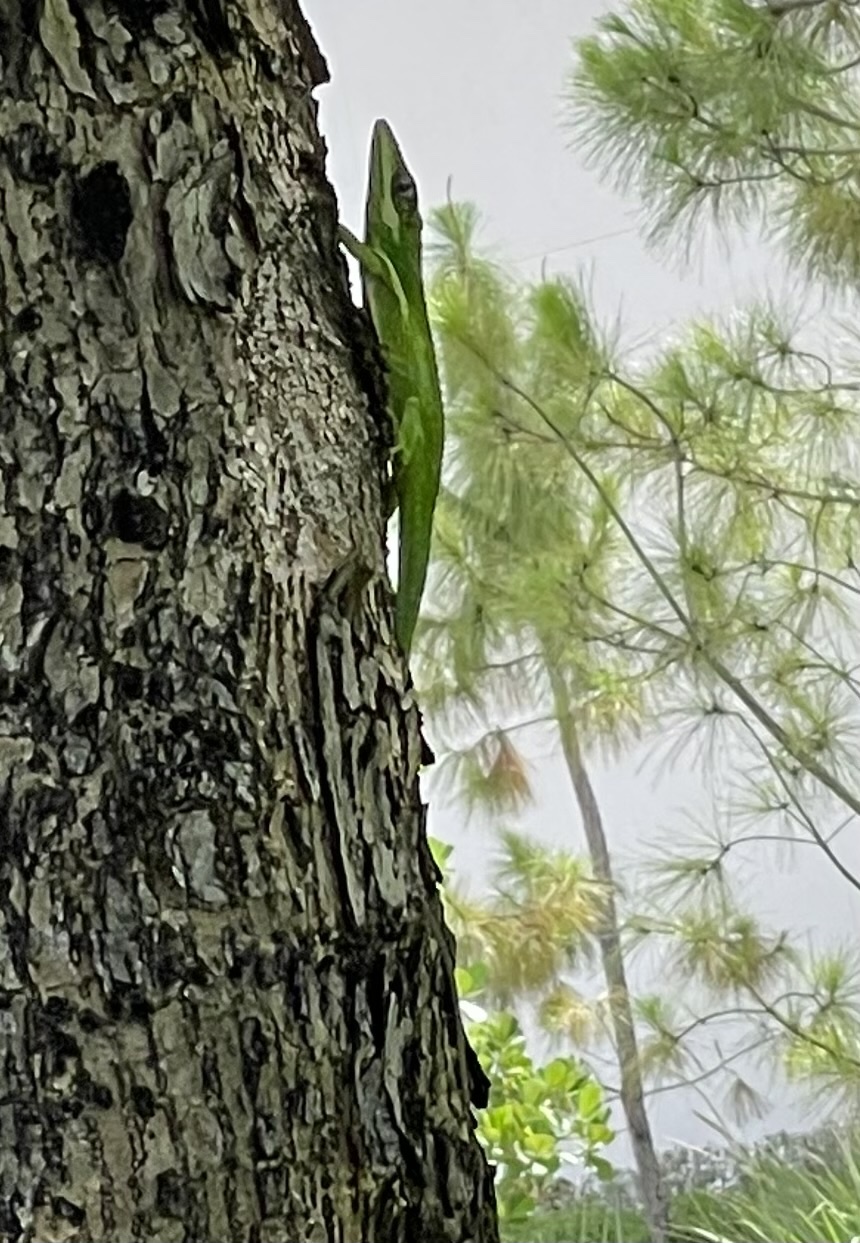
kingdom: Animalia
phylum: Chordata
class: Squamata
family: Dactyloidae
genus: Anolis
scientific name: Anolis equestris
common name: Knight anole
